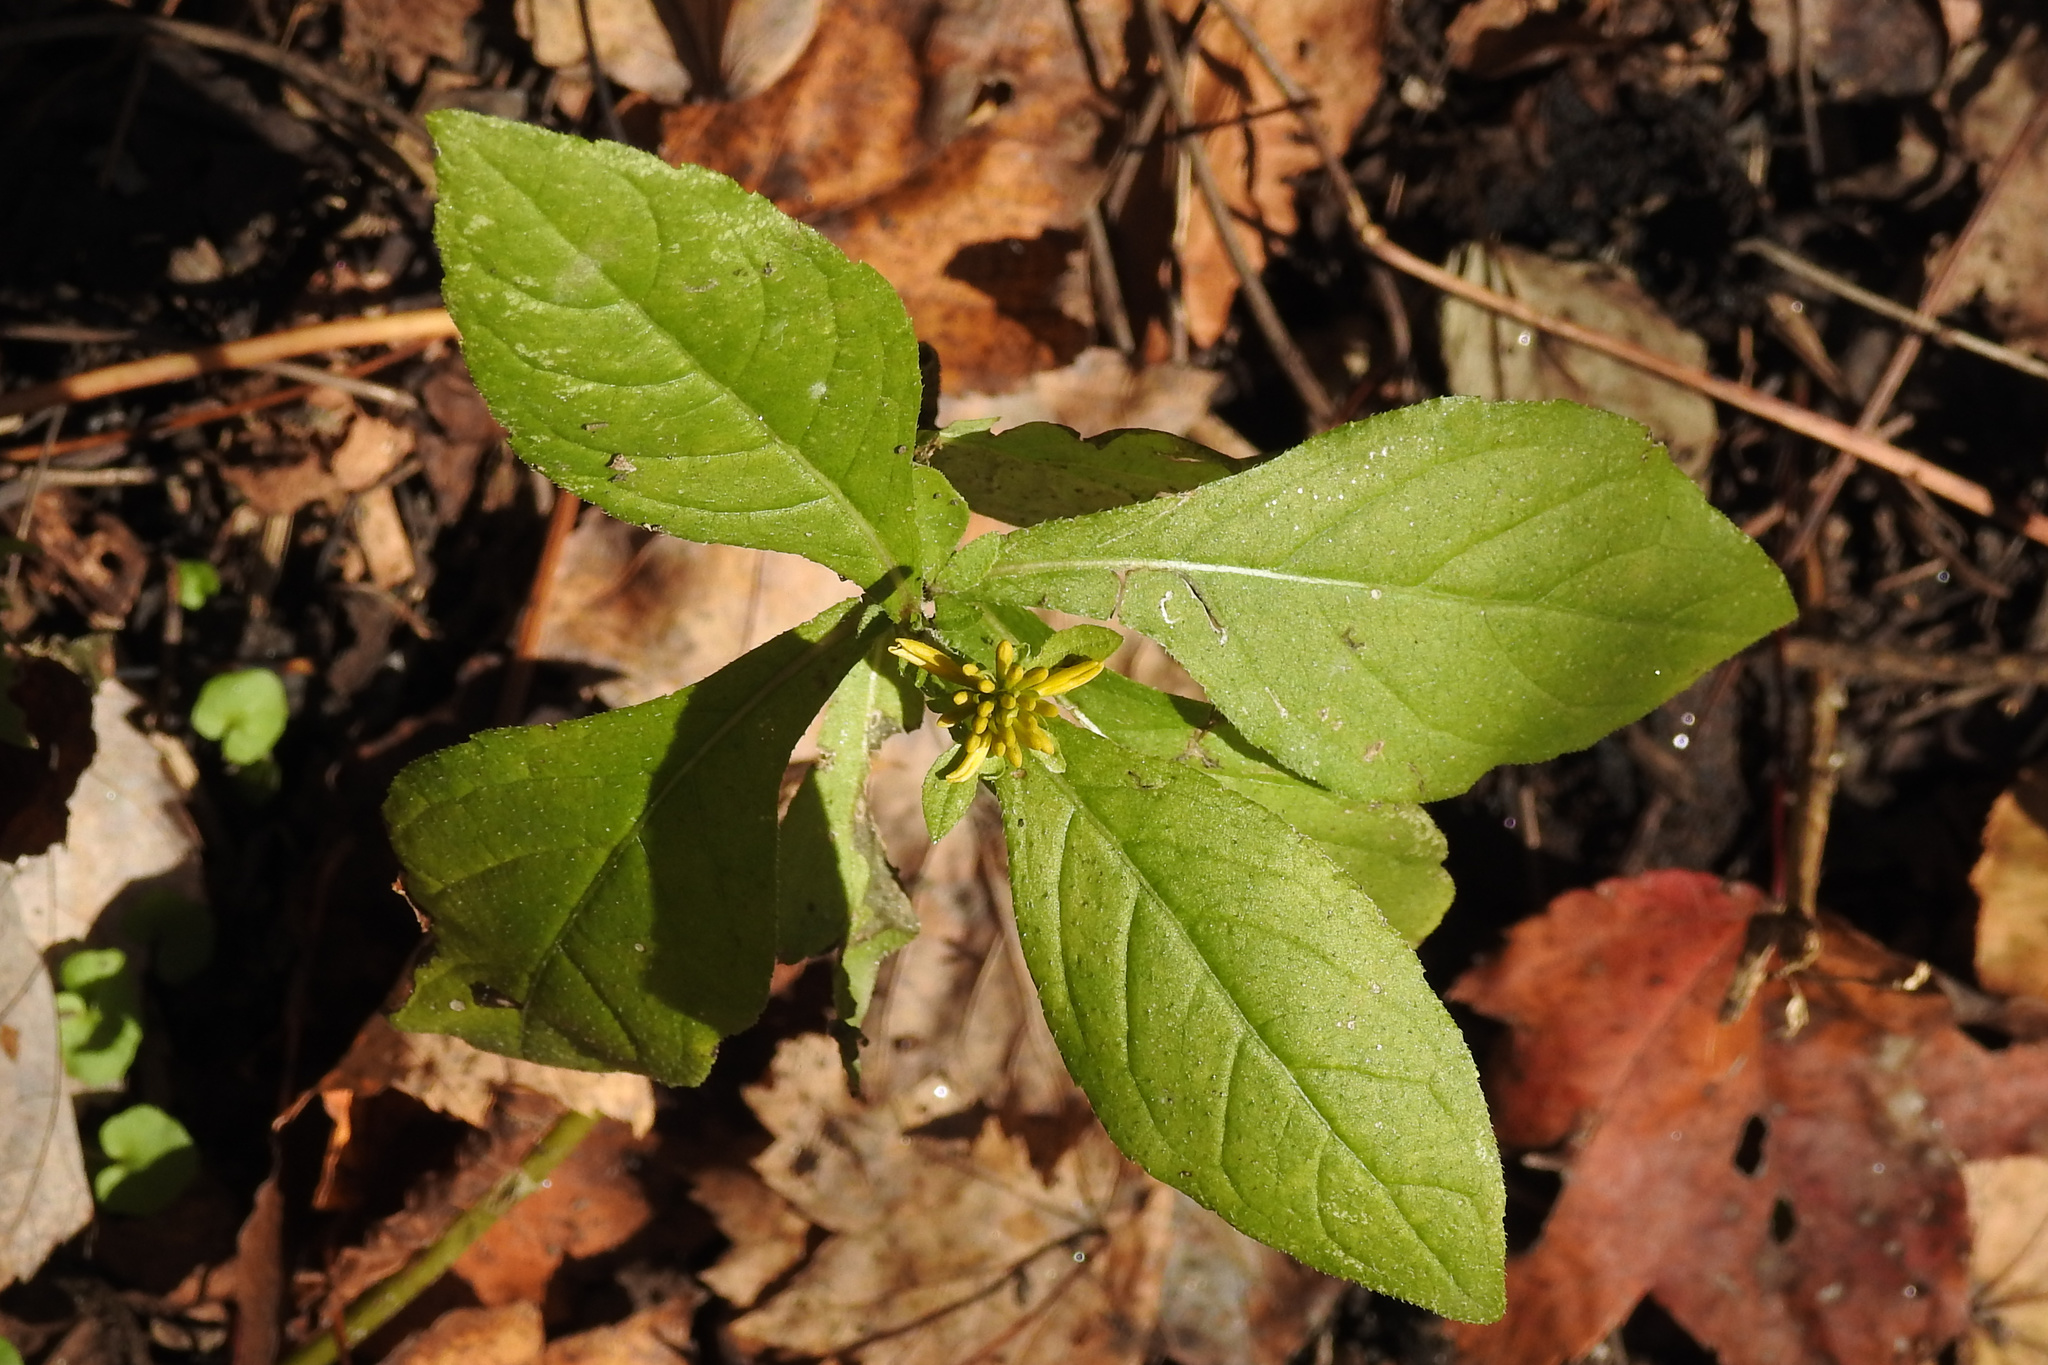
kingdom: Plantae
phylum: Tracheophyta
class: Magnoliopsida
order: Asterales
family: Asteraceae
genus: Verbesina
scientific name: Verbesina alternifolia
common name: Wingstem
